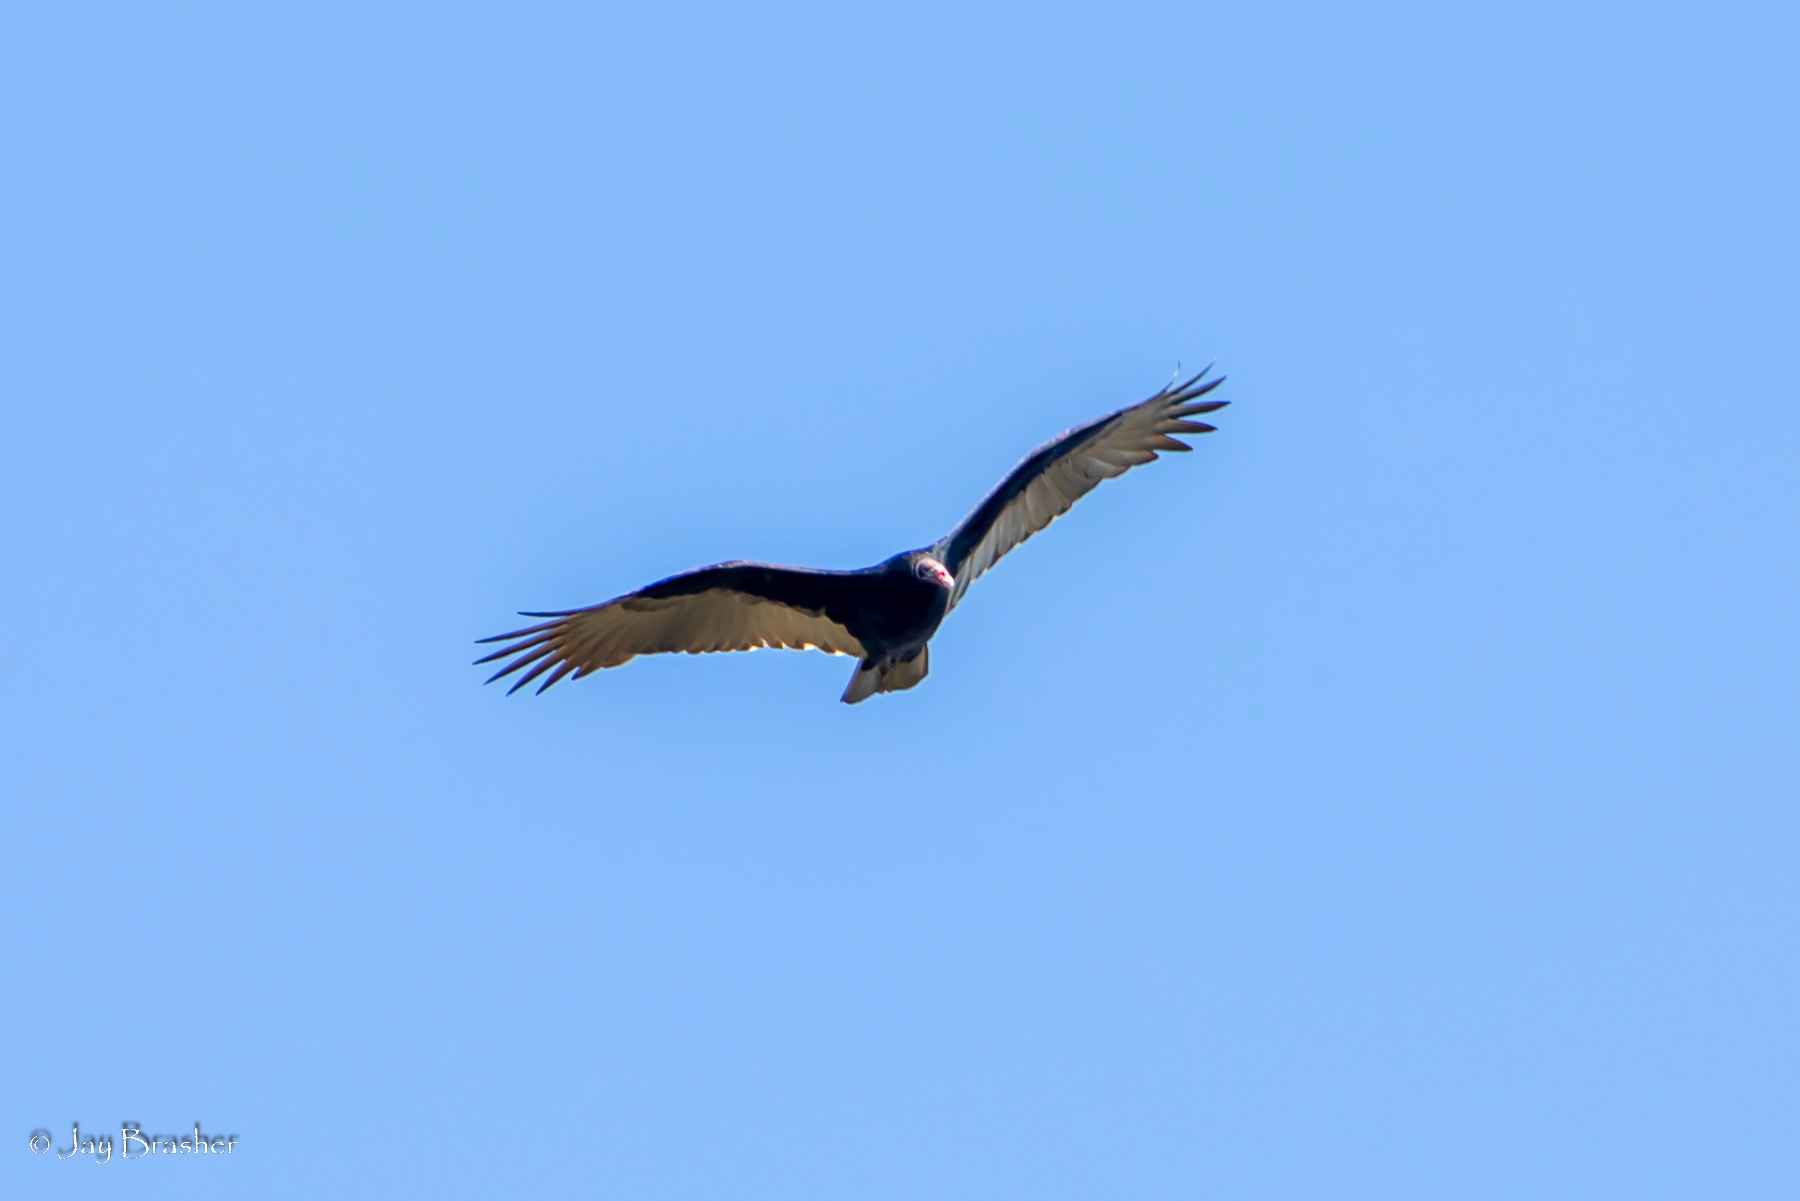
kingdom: Animalia
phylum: Chordata
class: Aves
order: Accipitriformes
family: Cathartidae
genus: Cathartes
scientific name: Cathartes aura
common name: Turkey vulture
